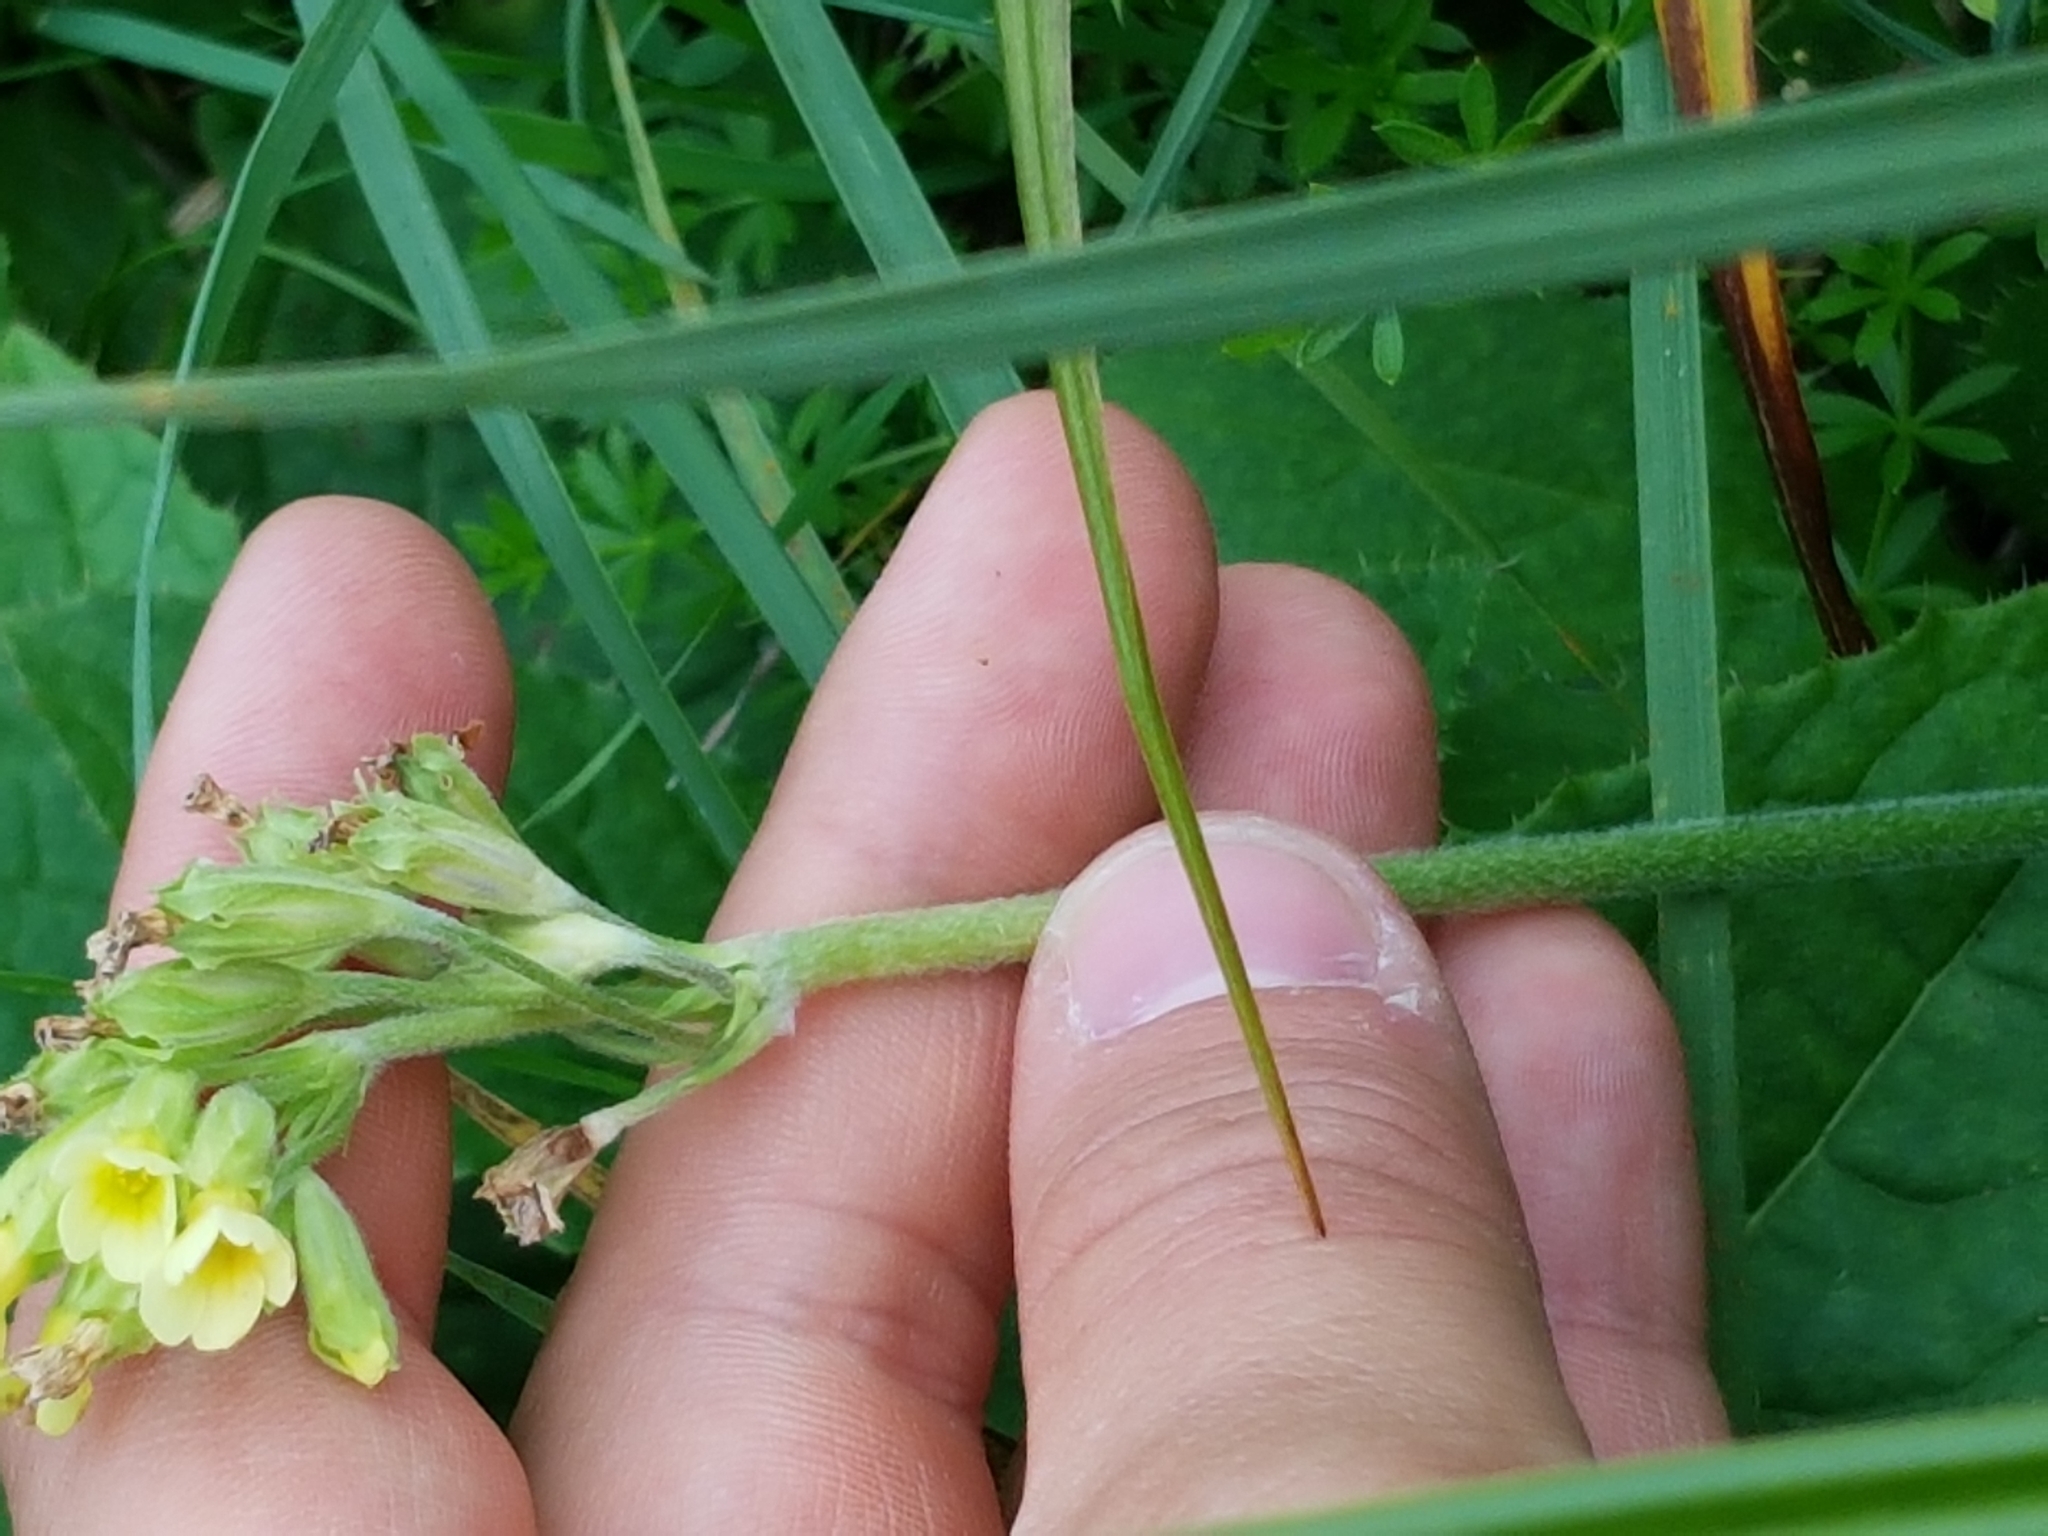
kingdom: Plantae
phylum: Tracheophyta
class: Magnoliopsida
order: Ericales
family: Primulaceae
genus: Primula
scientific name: Primula elatior
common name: Oxlip
